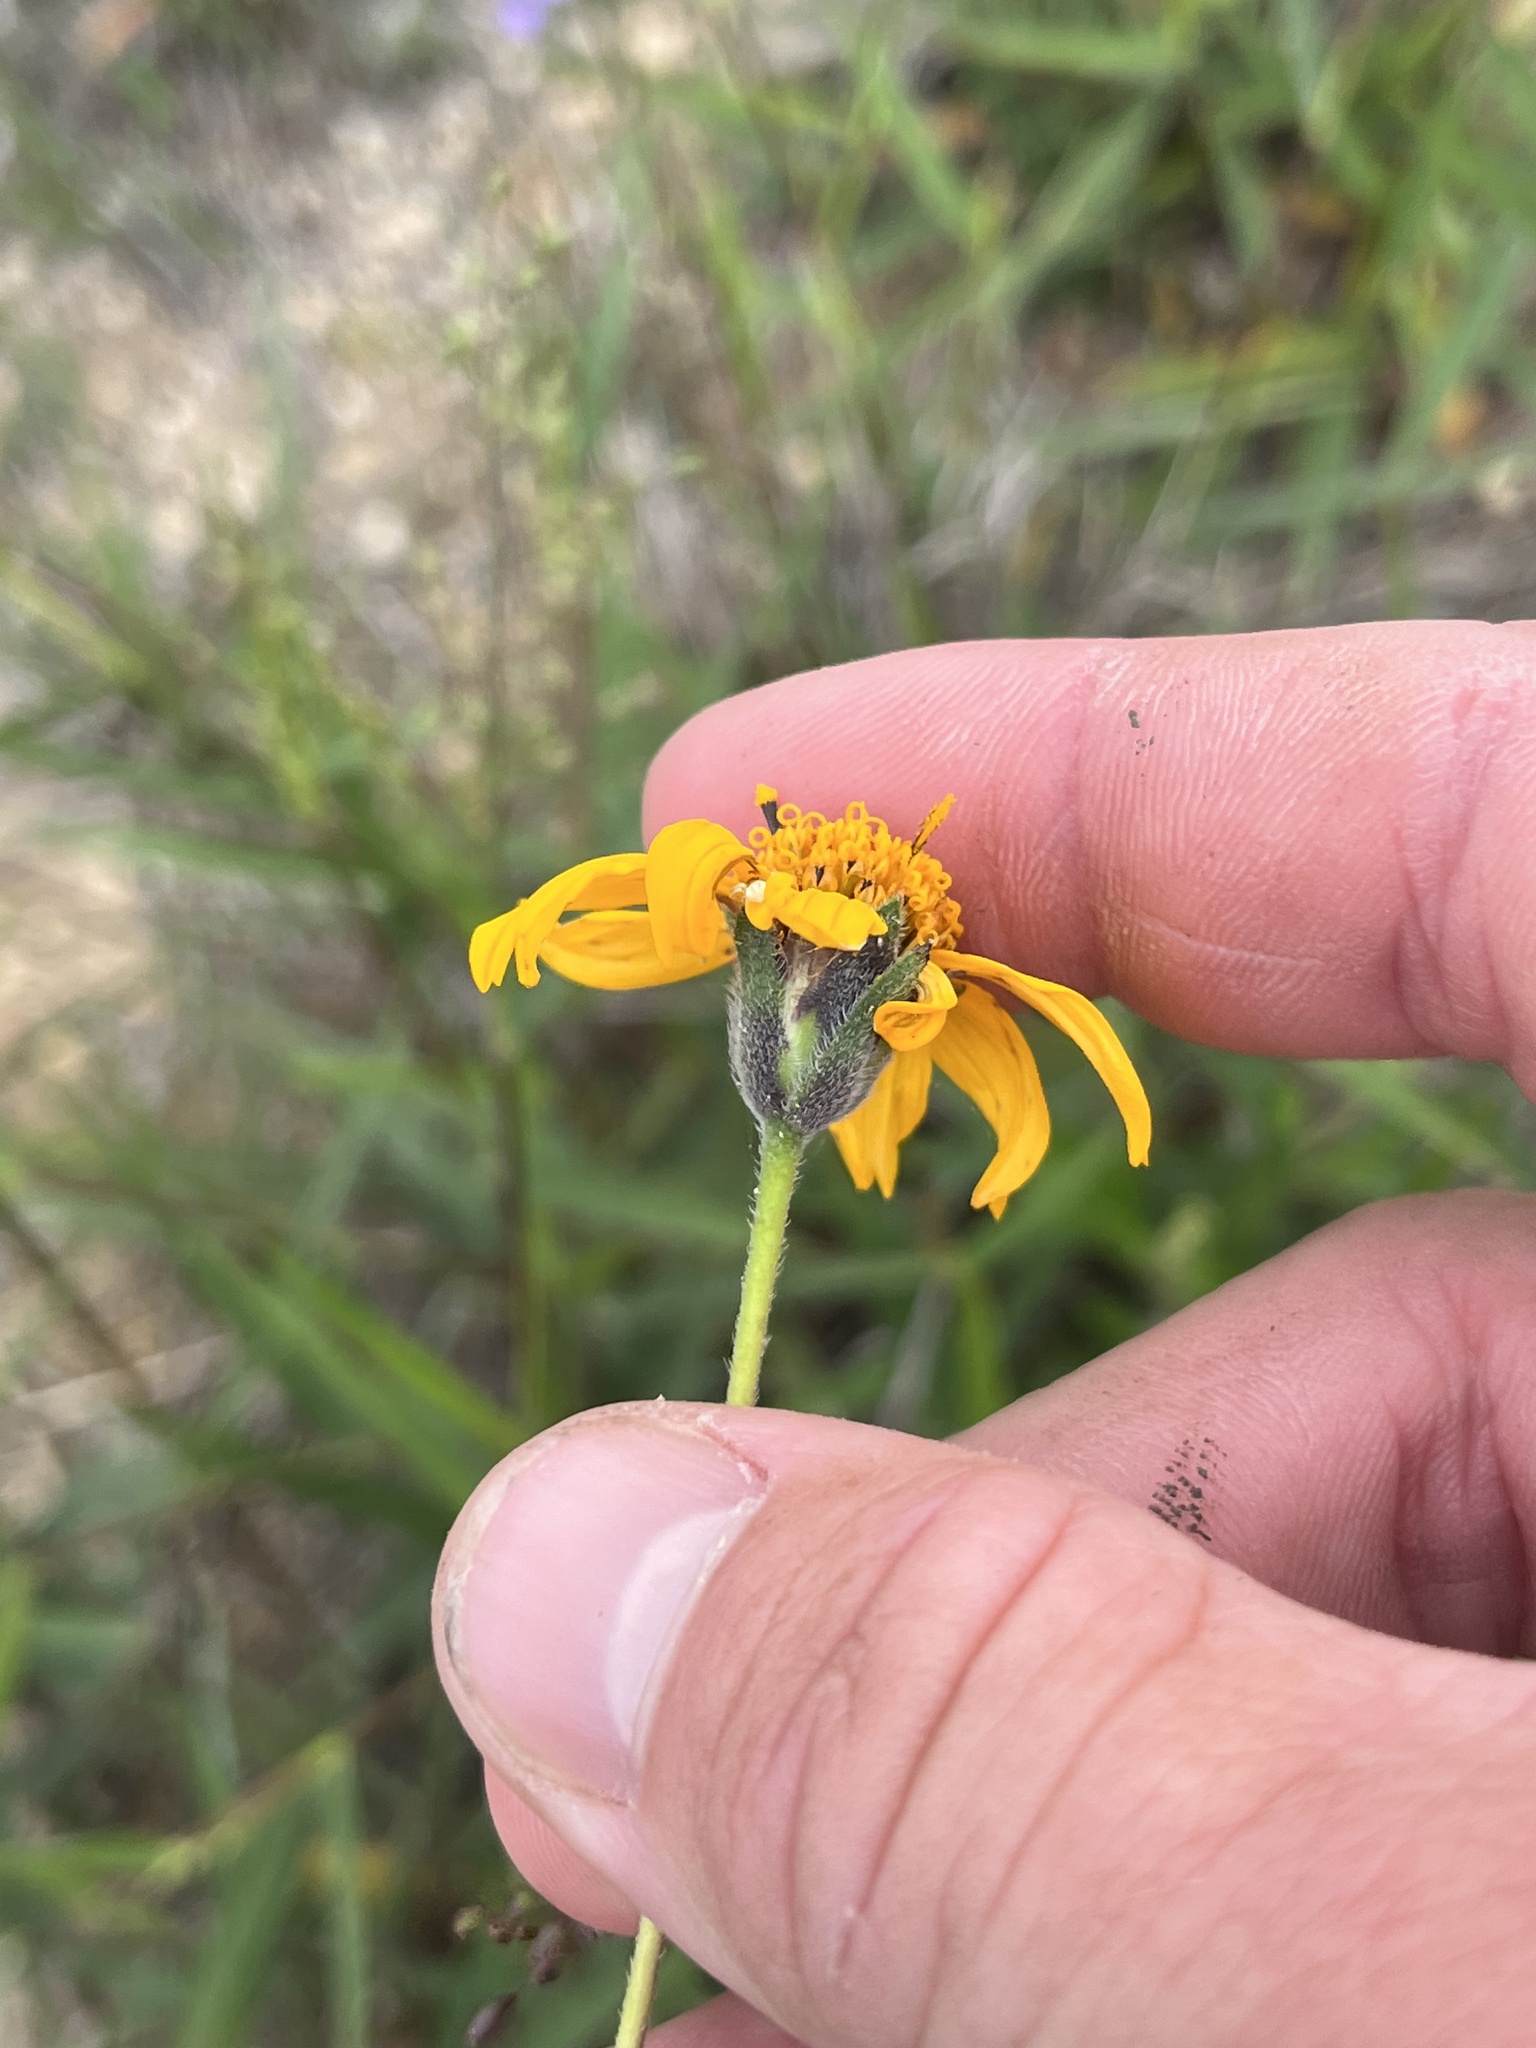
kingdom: Plantae
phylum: Tracheophyta
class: Magnoliopsida
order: Asterales
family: Asteraceae
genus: Wedelia
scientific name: Wedelia acapulcensis
